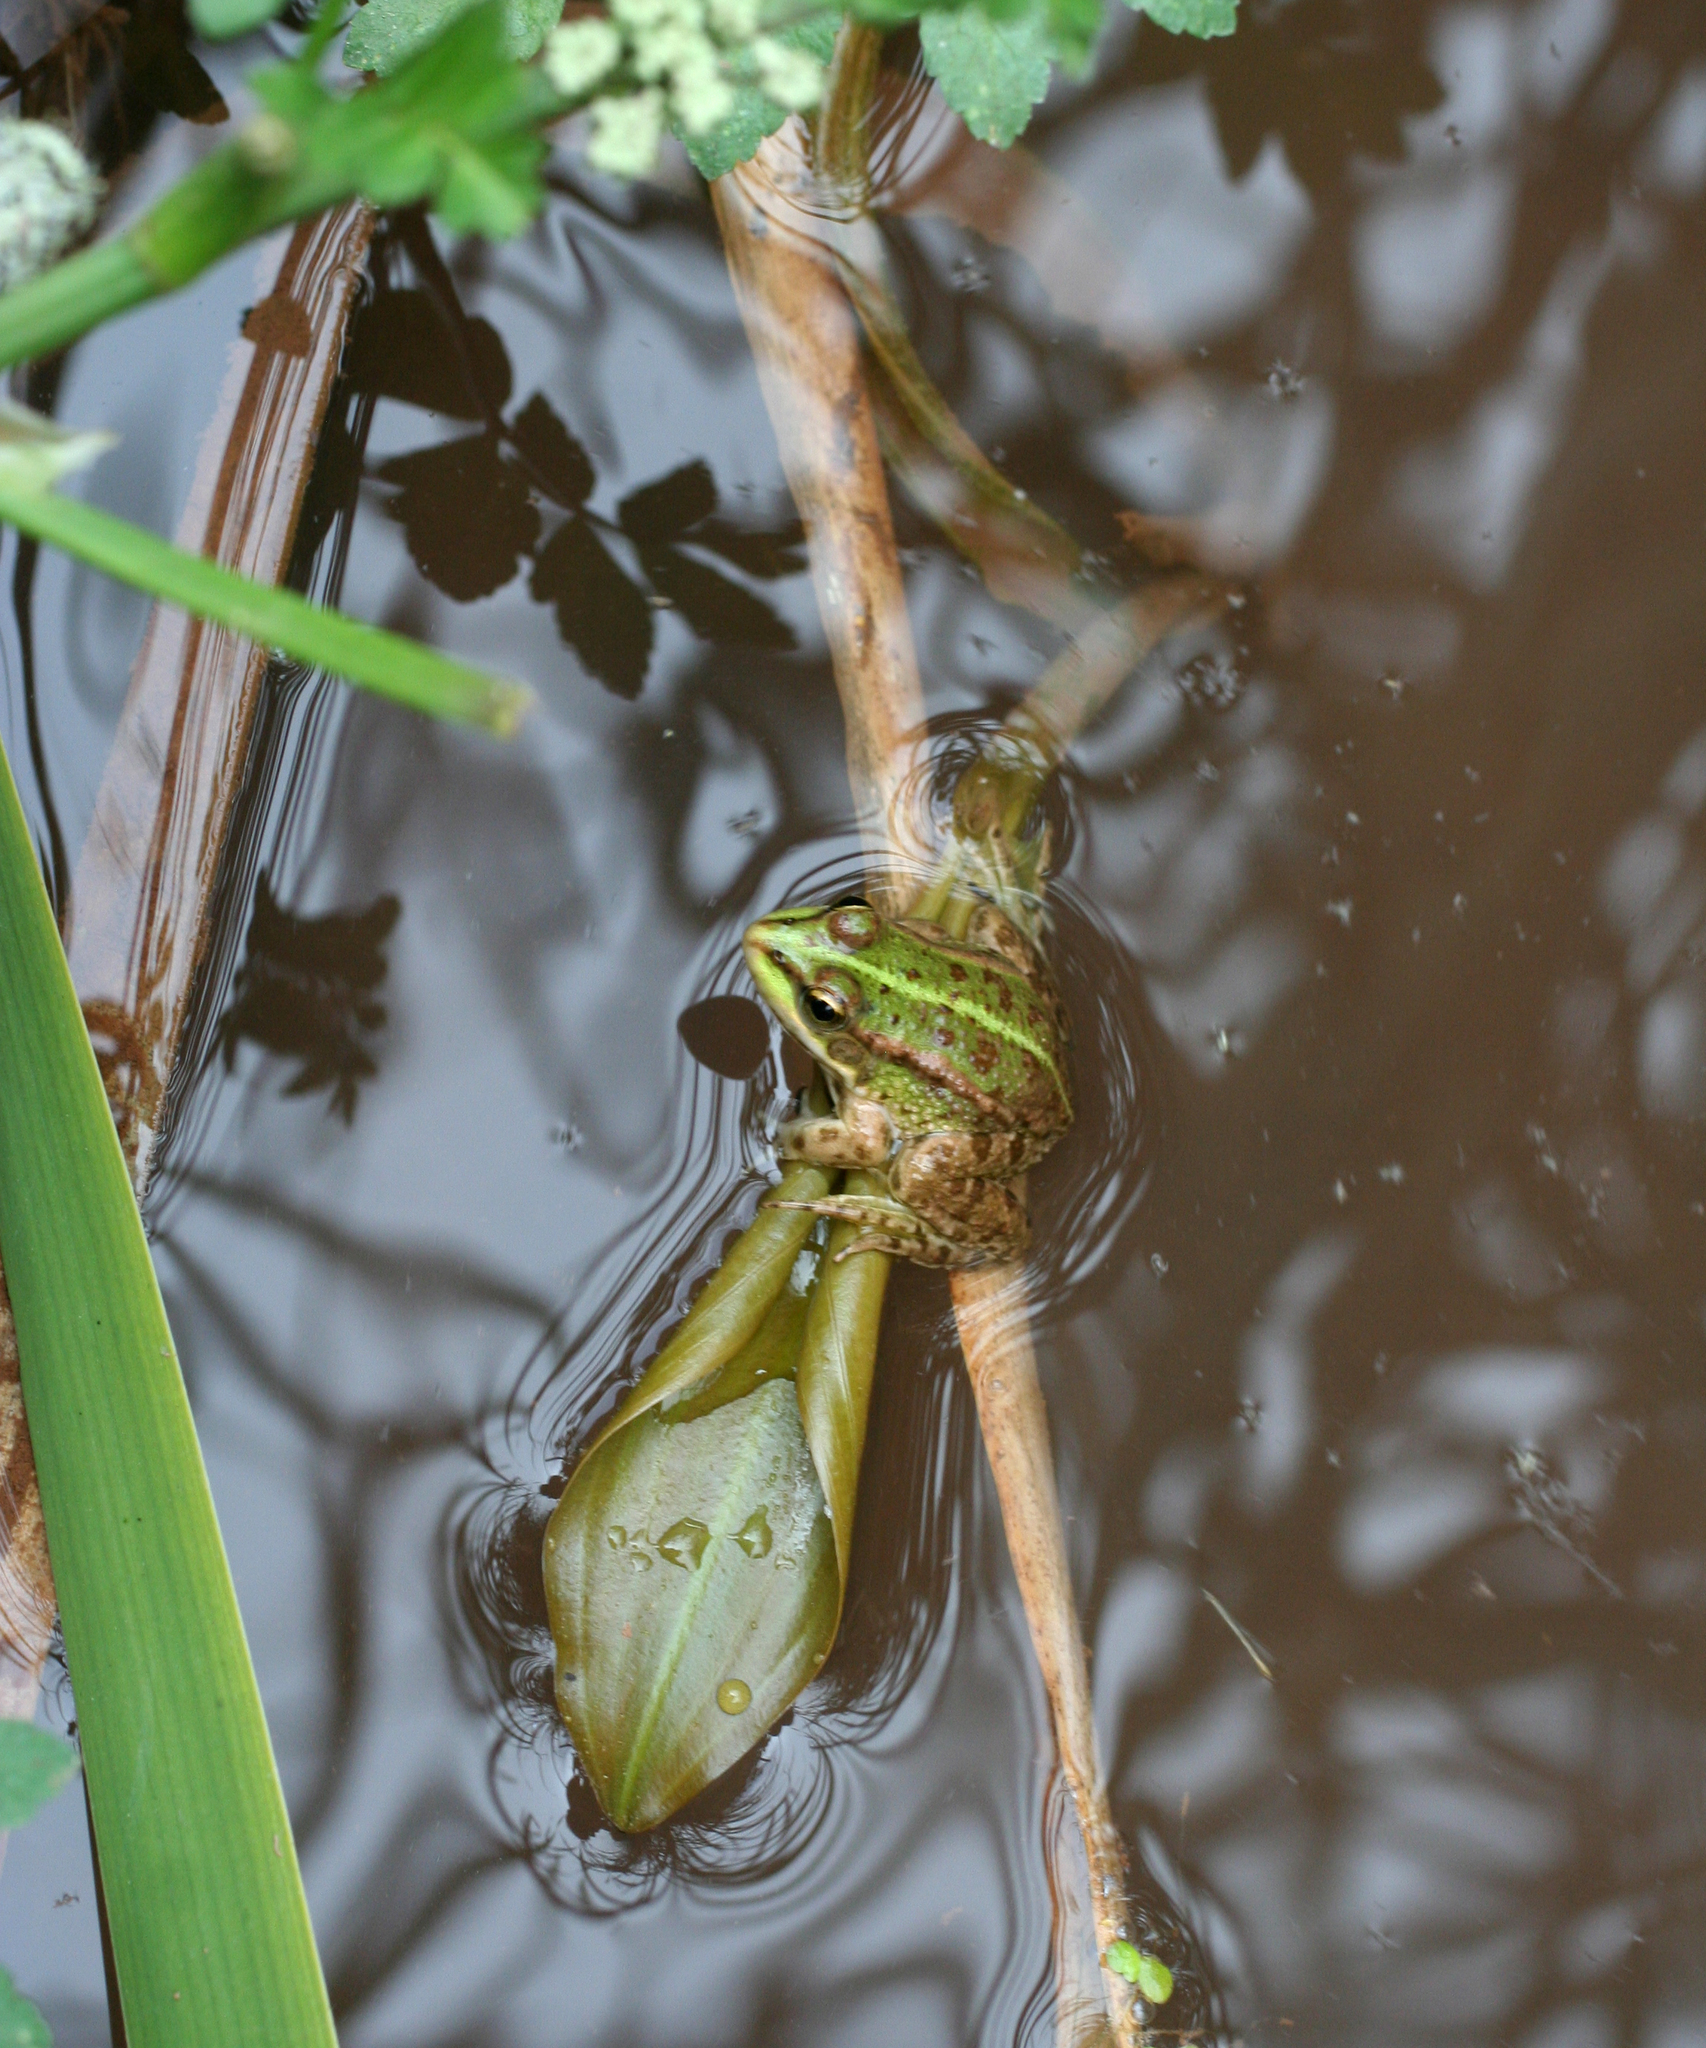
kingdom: Animalia
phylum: Chordata
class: Amphibia
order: Anura
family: Ranidae
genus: Pelophylax
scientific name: Pelophylax saharicus
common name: Sahara frog
